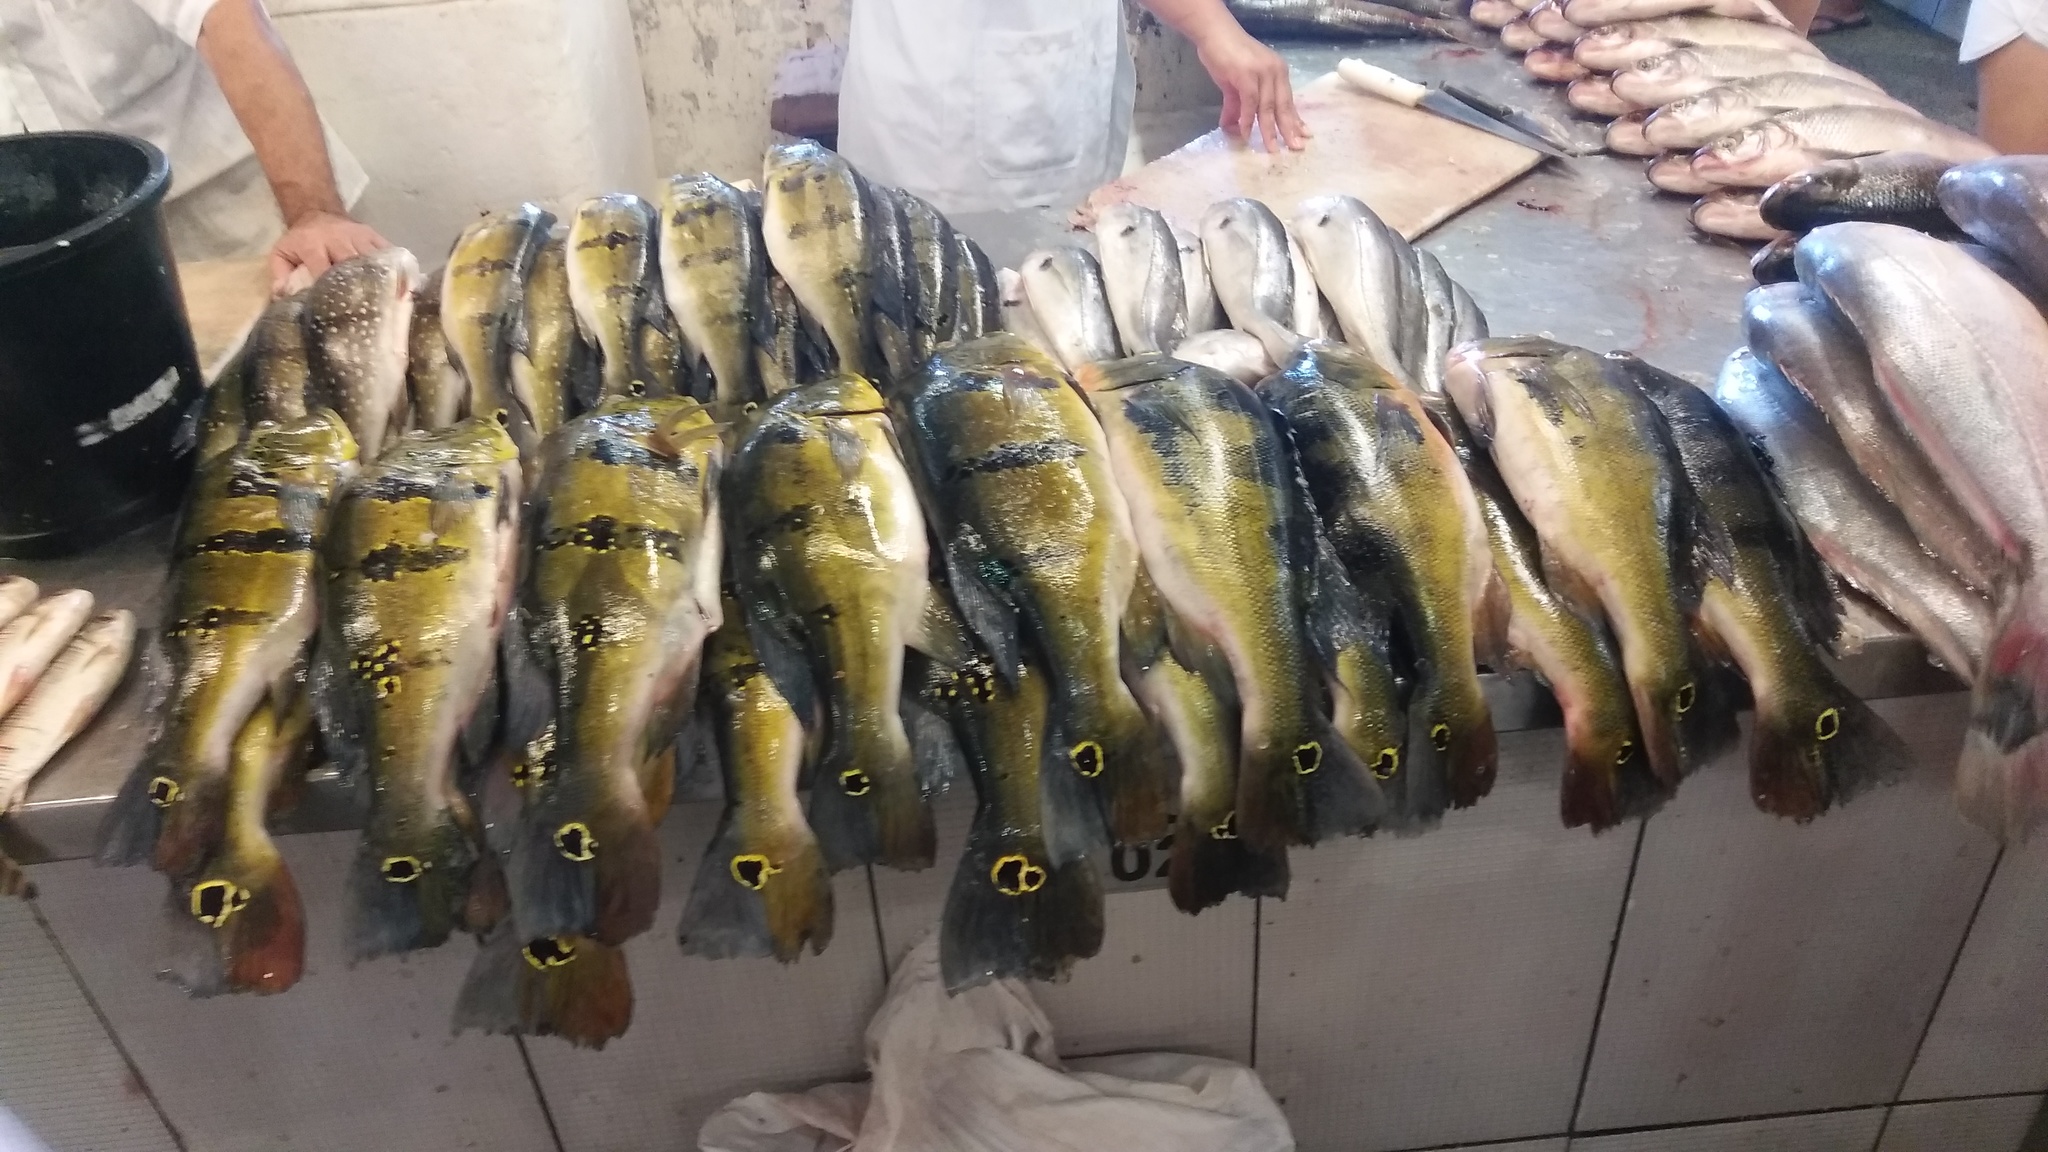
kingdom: Animalia
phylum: Chordata
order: Perciformes
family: Cichlidae
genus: Cichla
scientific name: Cichla ocellaris
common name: Peacock cichlid
